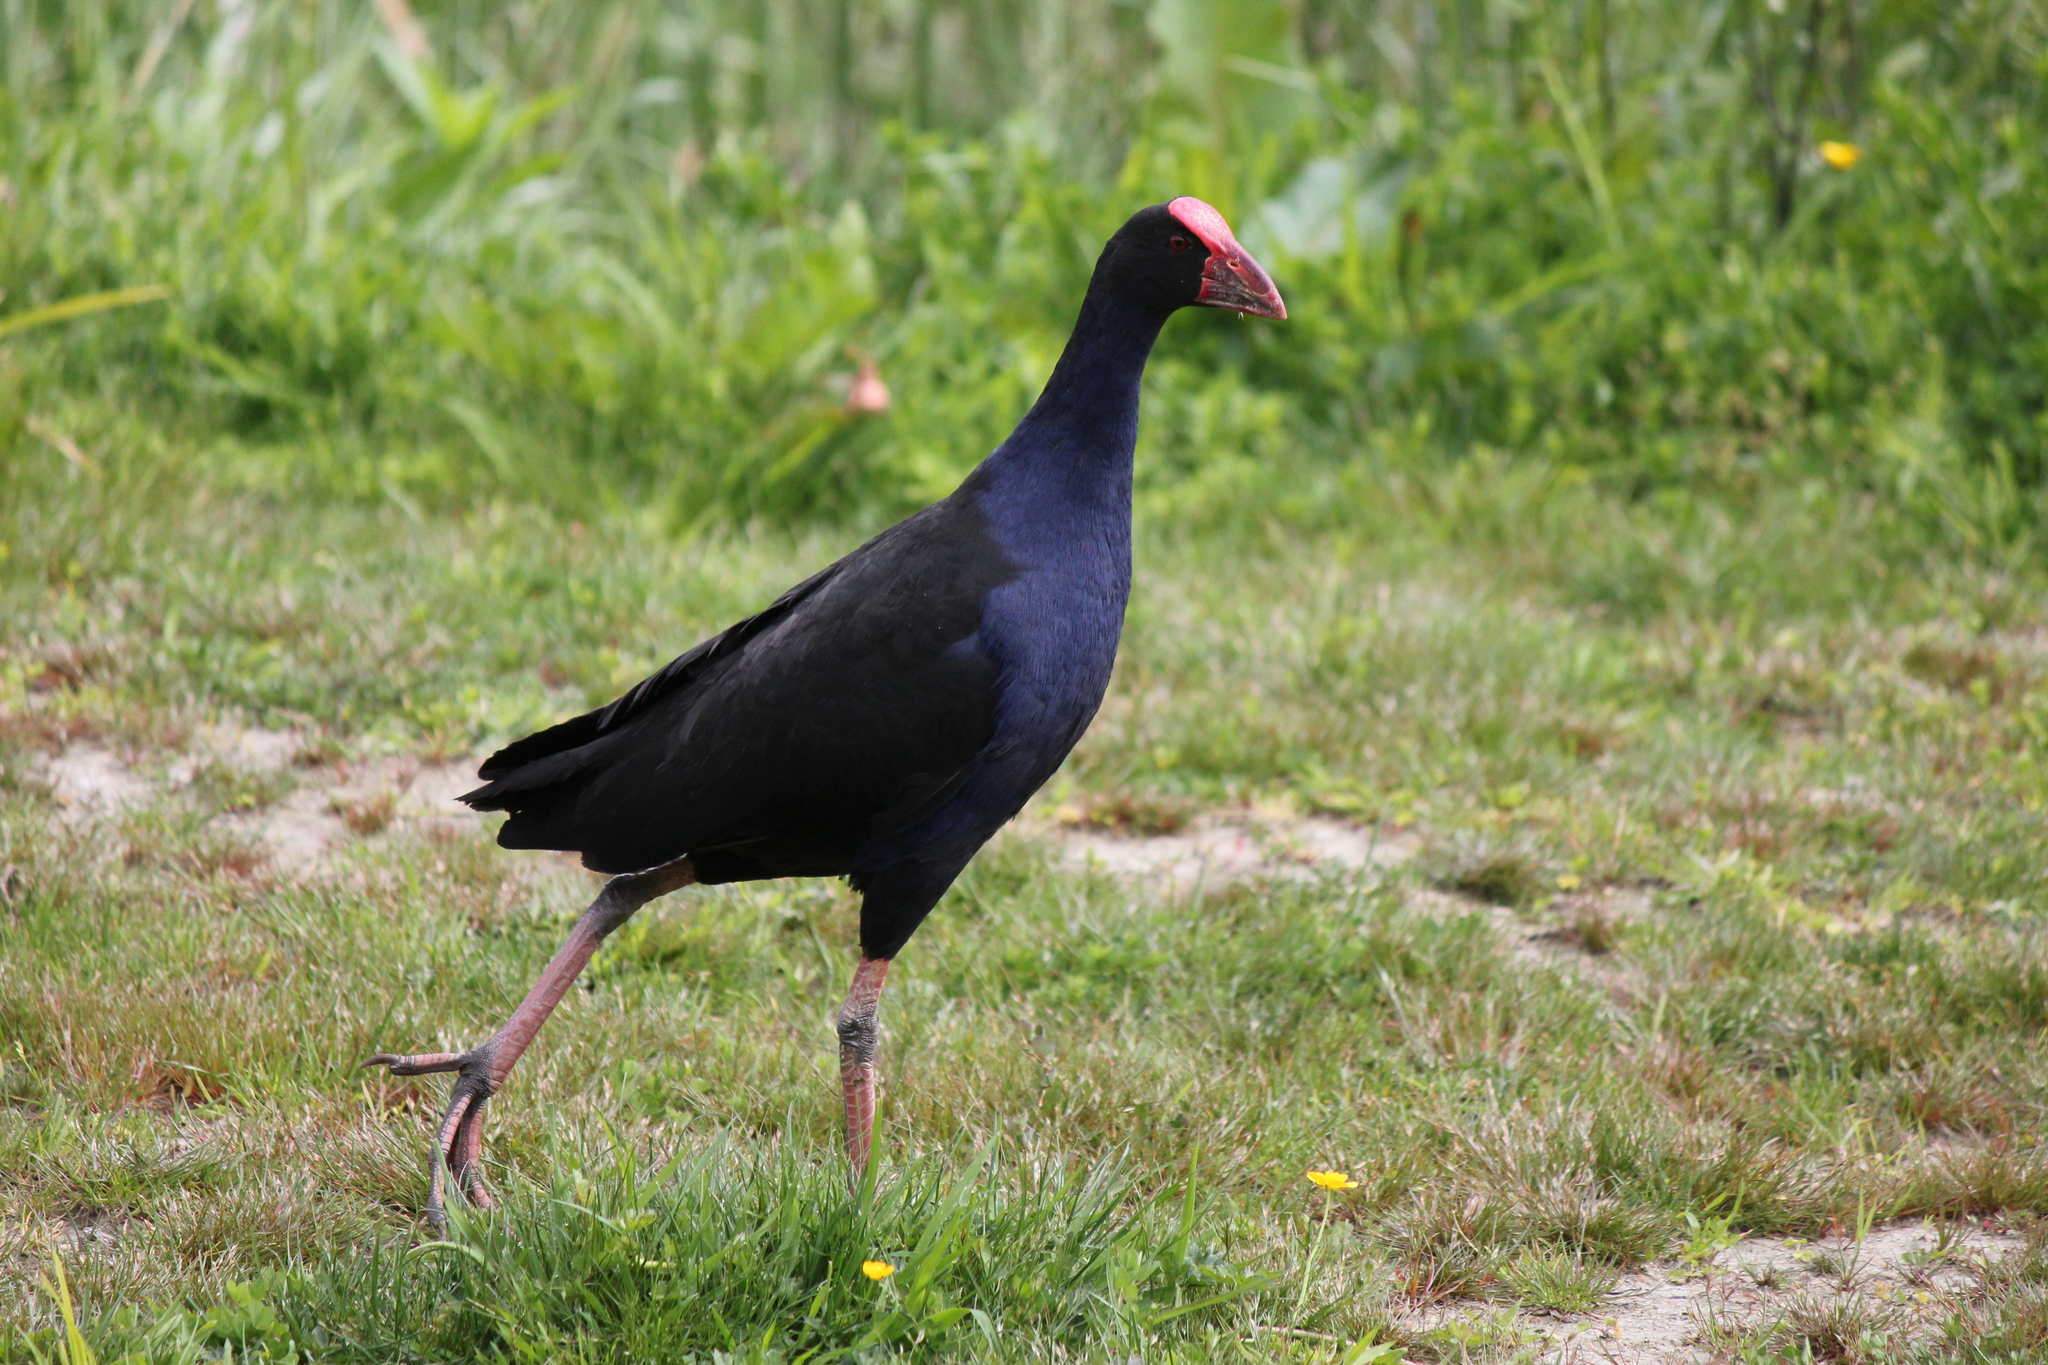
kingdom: Animalia
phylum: Chordata
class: Aves
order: Gruiformes
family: Rallidae
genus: Porphyrio
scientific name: Porphyrio melanotus
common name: Australasian swamphen
